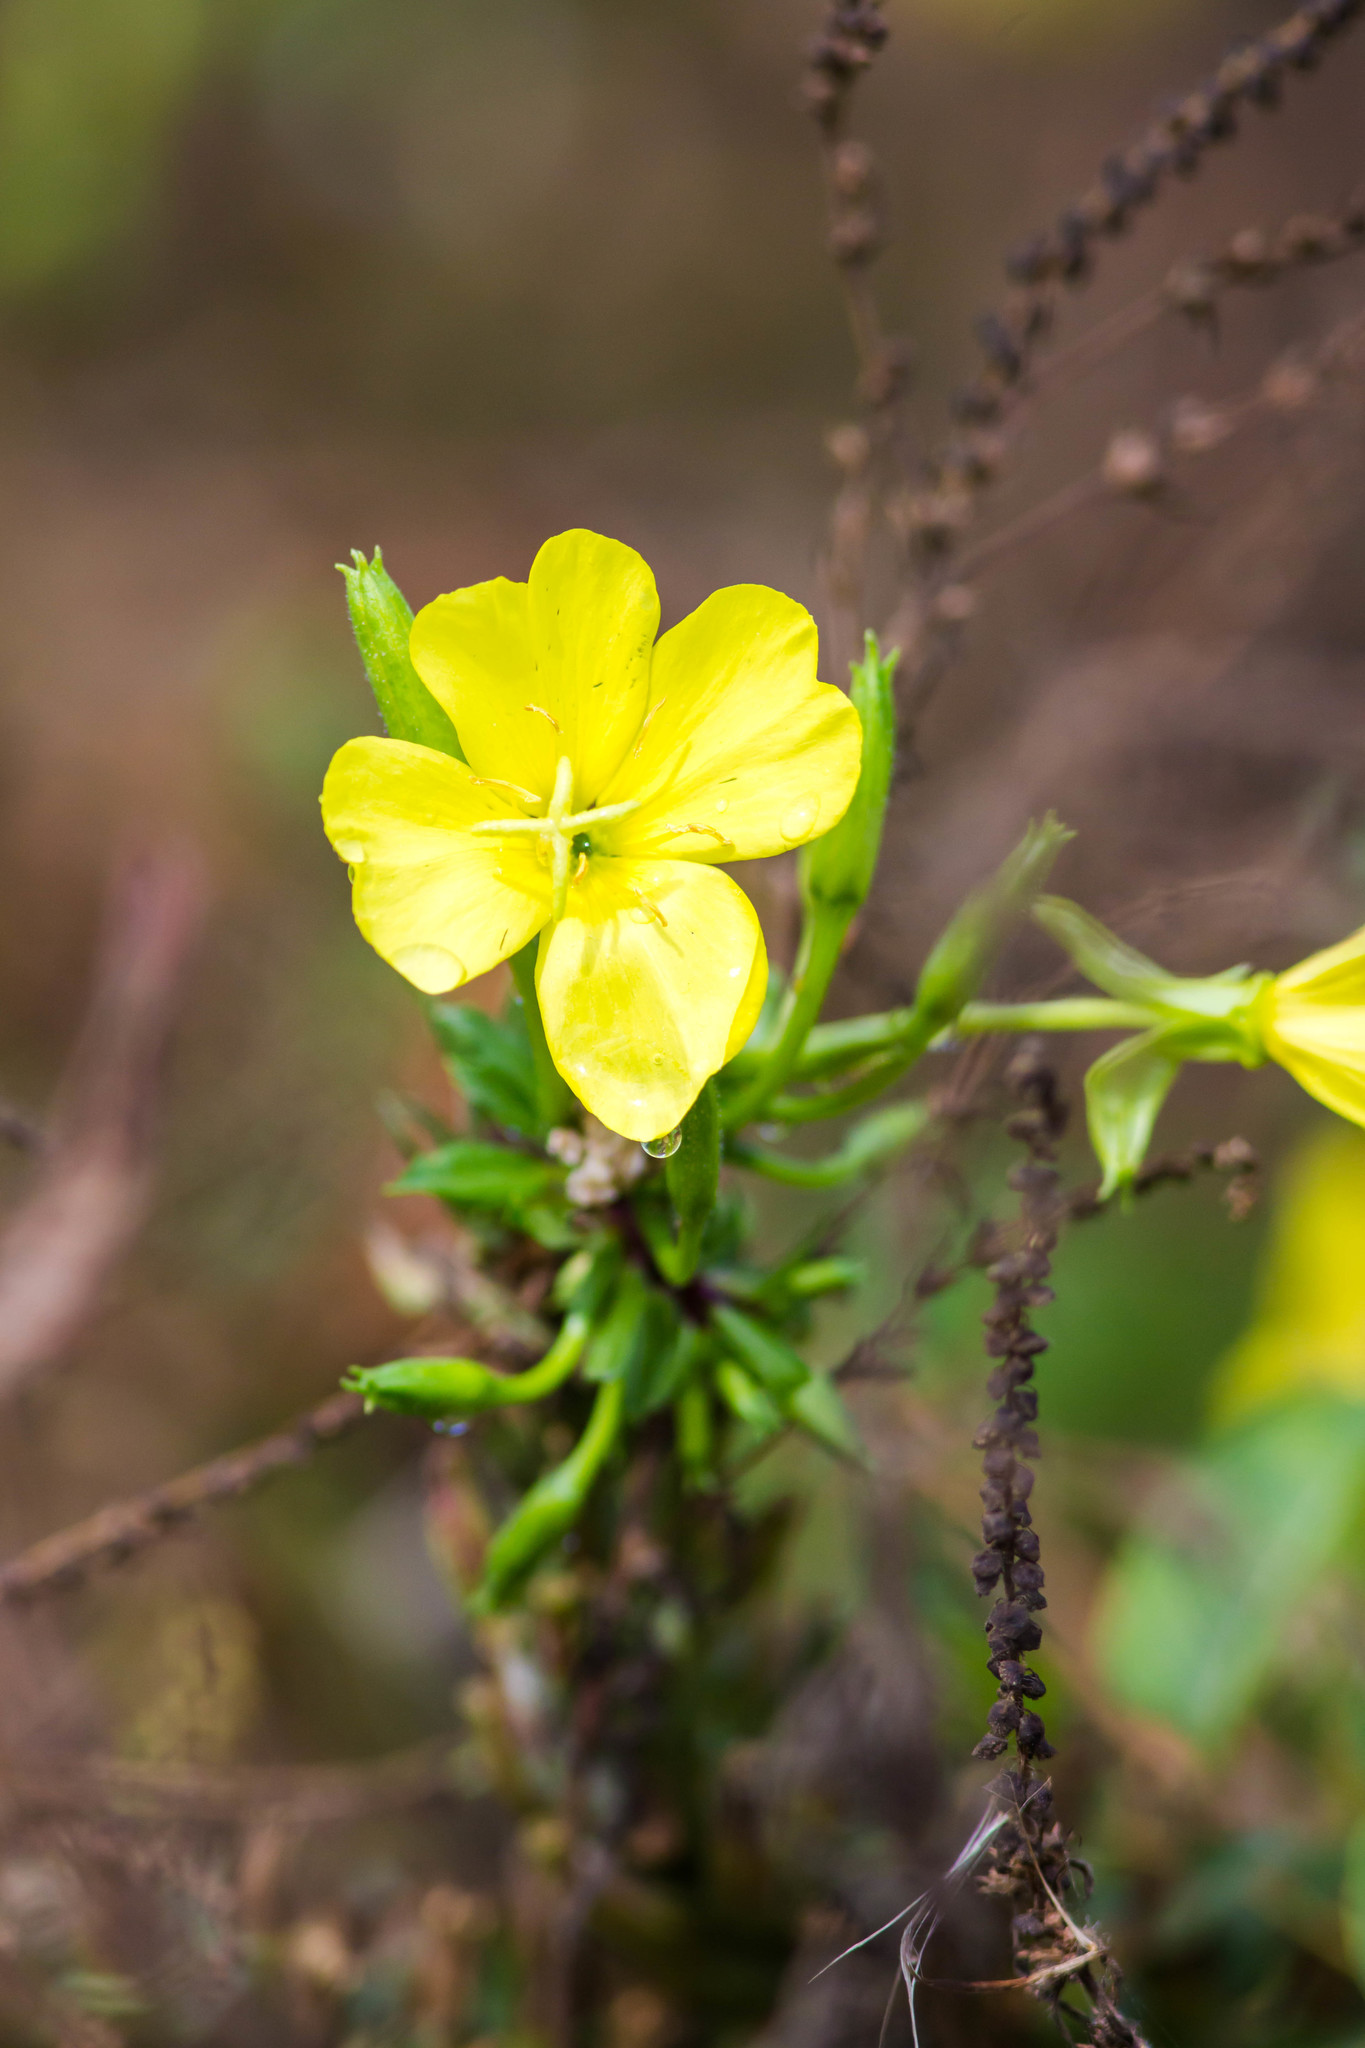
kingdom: Plantae
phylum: Tracheophyta
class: Magnoliopsida
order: Myrtales
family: Onagraceae
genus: Oenothera
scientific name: Oenothera biennis
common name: Common evening-primrose
